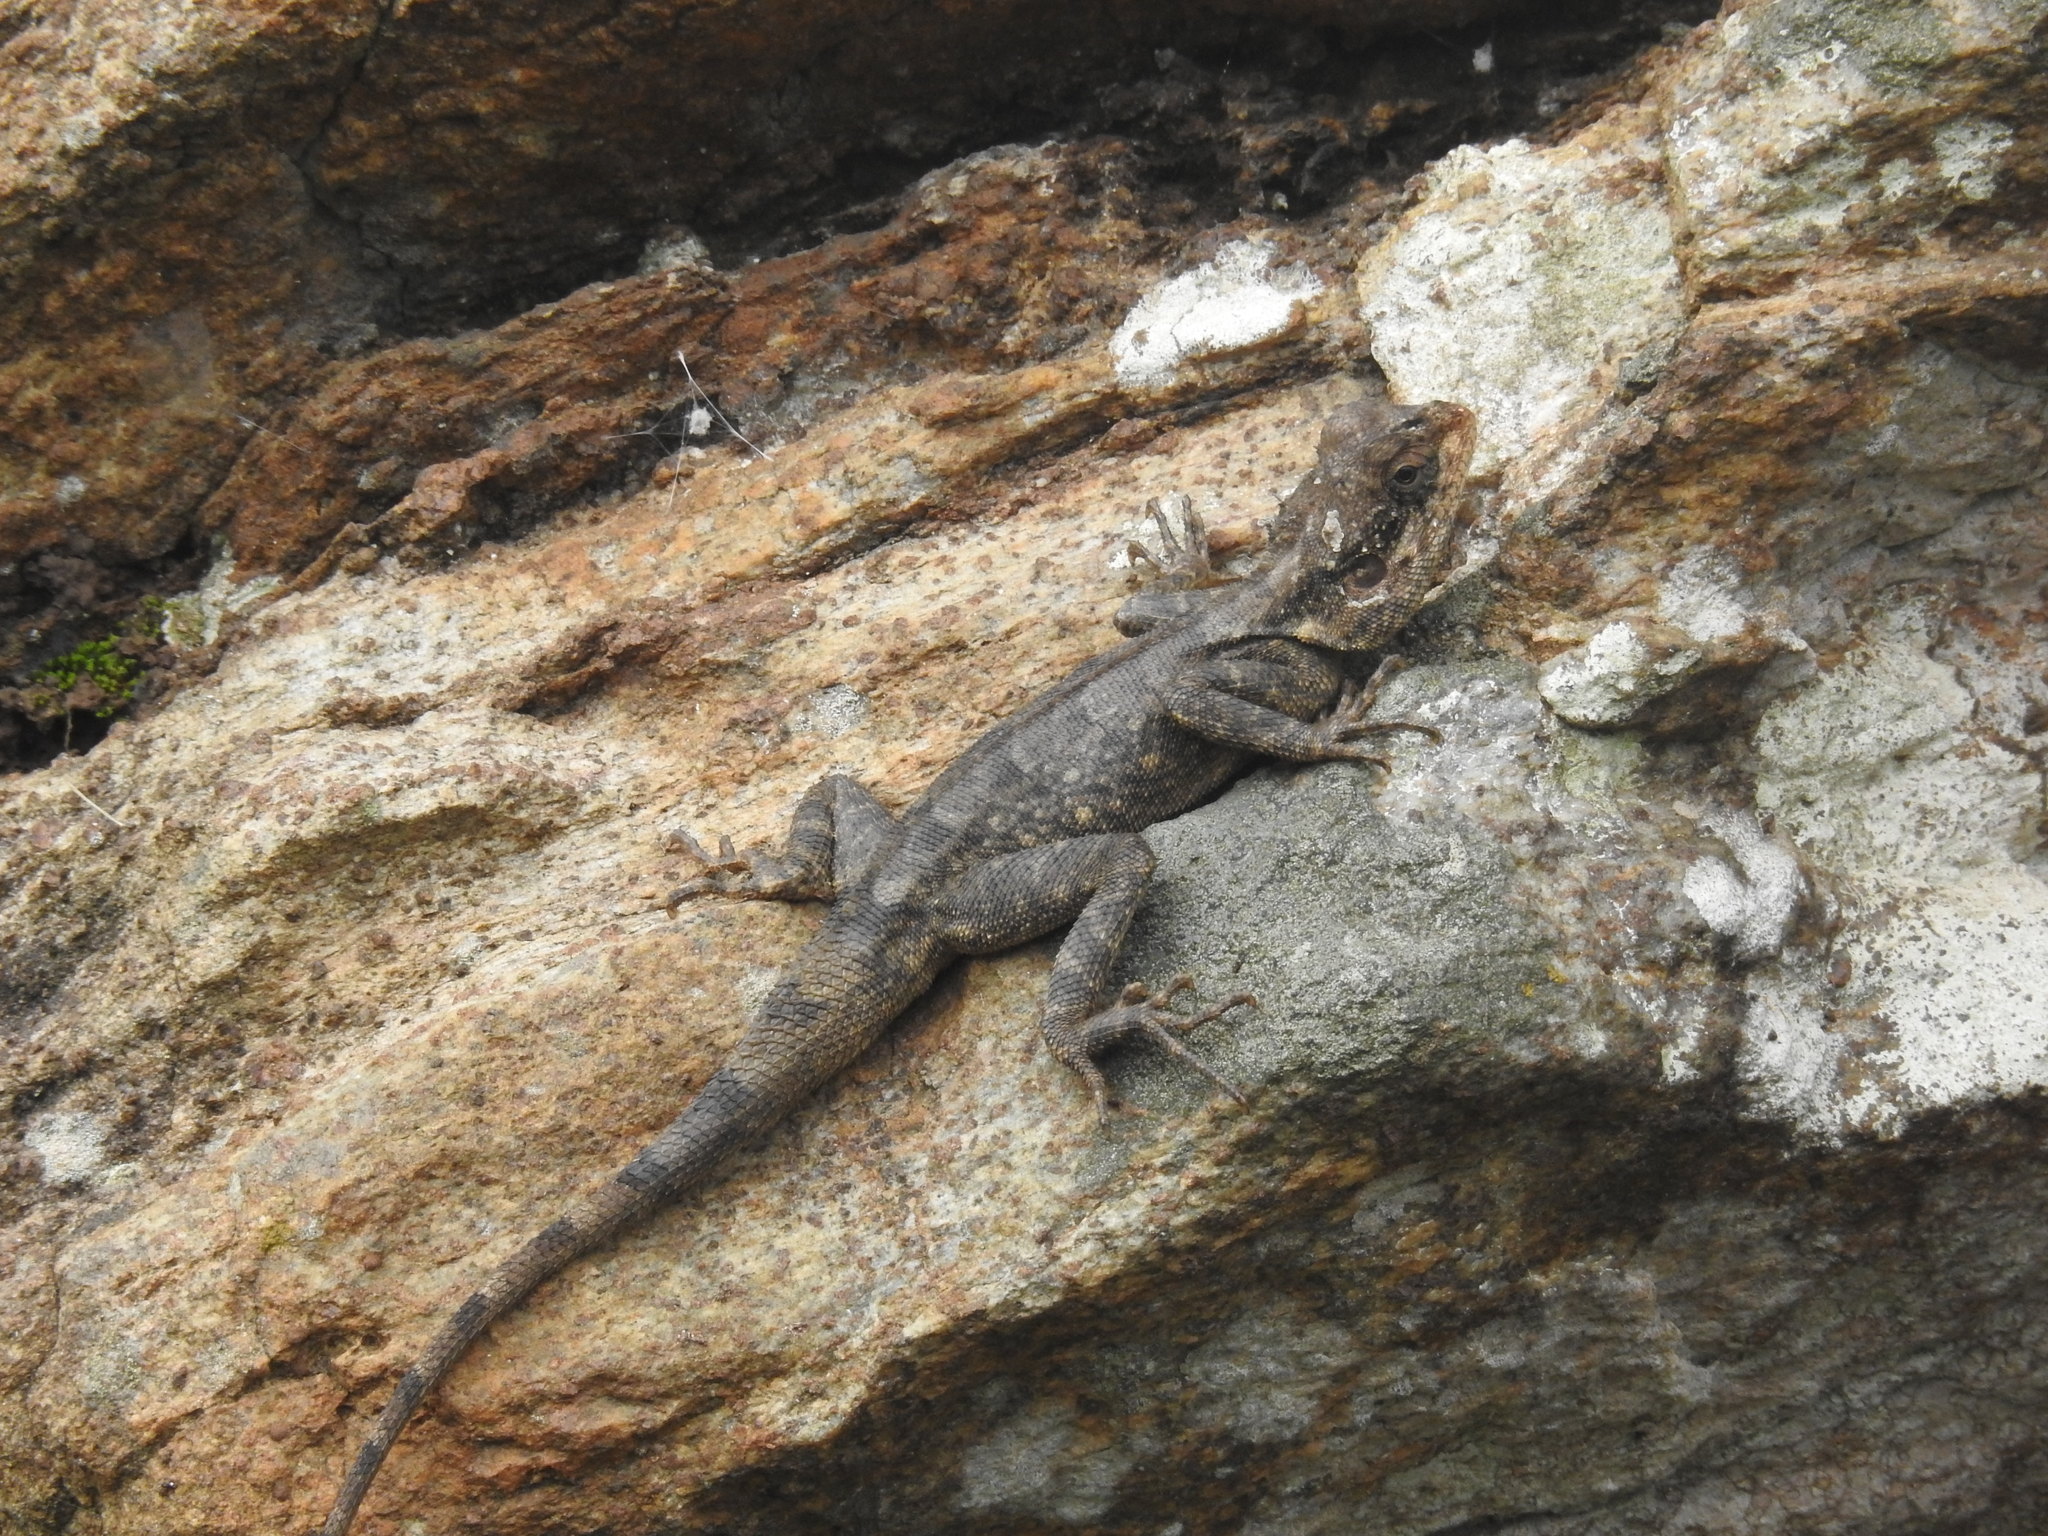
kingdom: Animalia
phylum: Chordata
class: Squamata
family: Agamidae
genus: Psammophilus
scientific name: Psammophilus blanfordanus
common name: Blanford's rock agama
